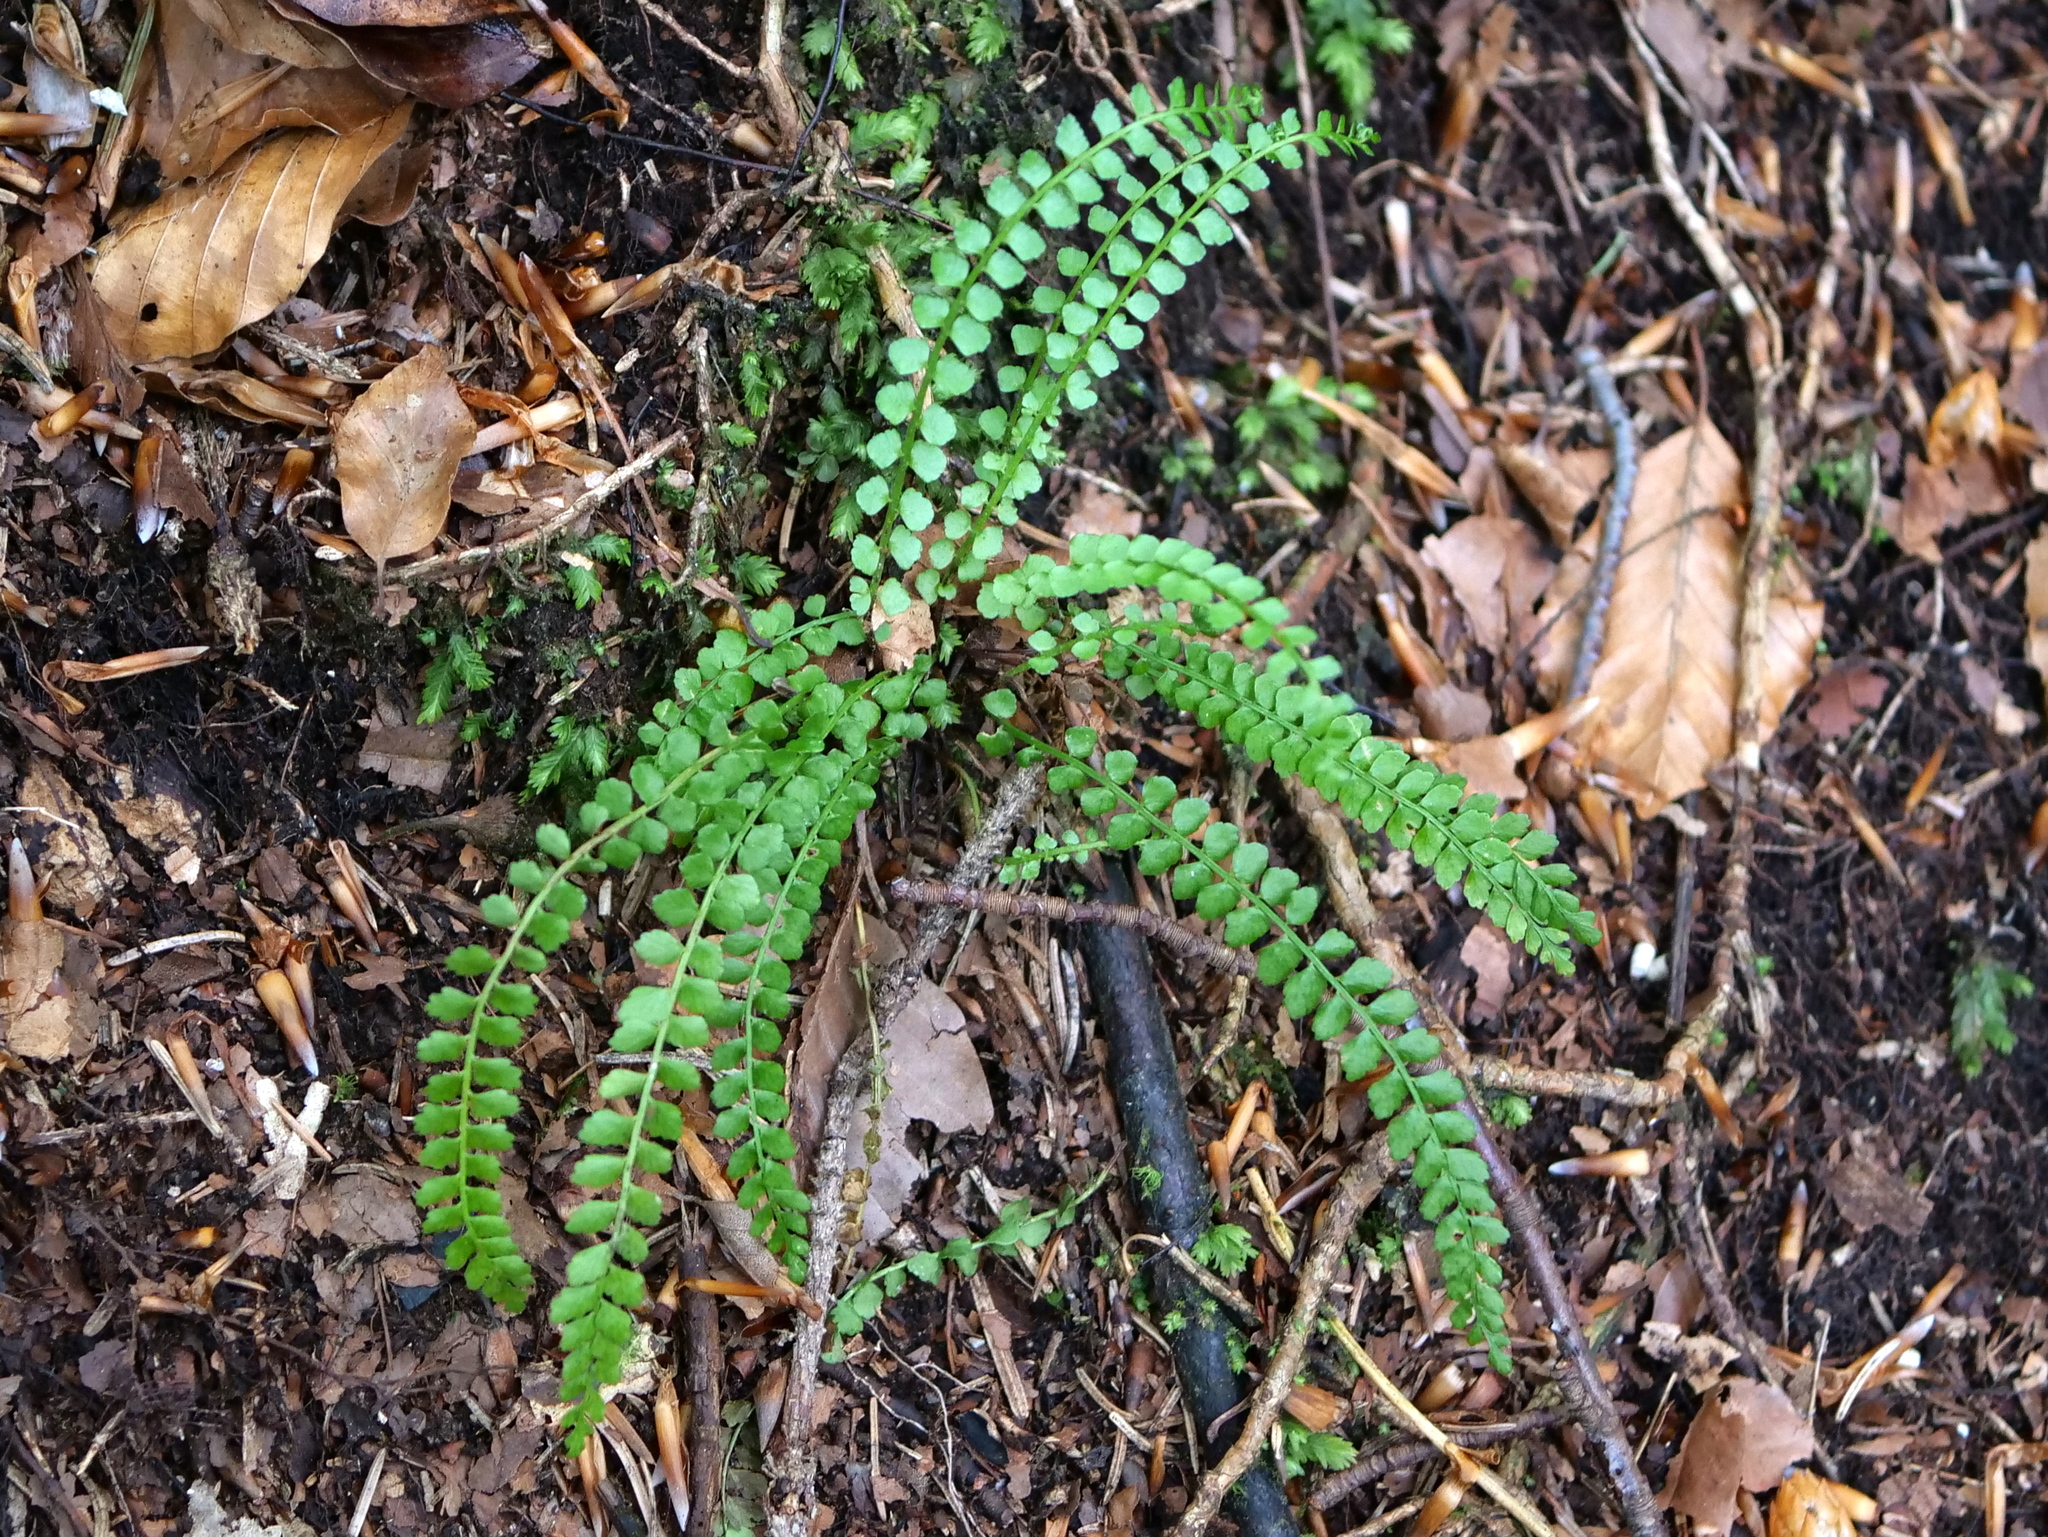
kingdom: Plantae
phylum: Tracheophyta
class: Polypodiopsida
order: Polypodiales
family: Aspleniaceae
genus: Asplenium
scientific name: Asplenium viride
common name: Green spleenwort
